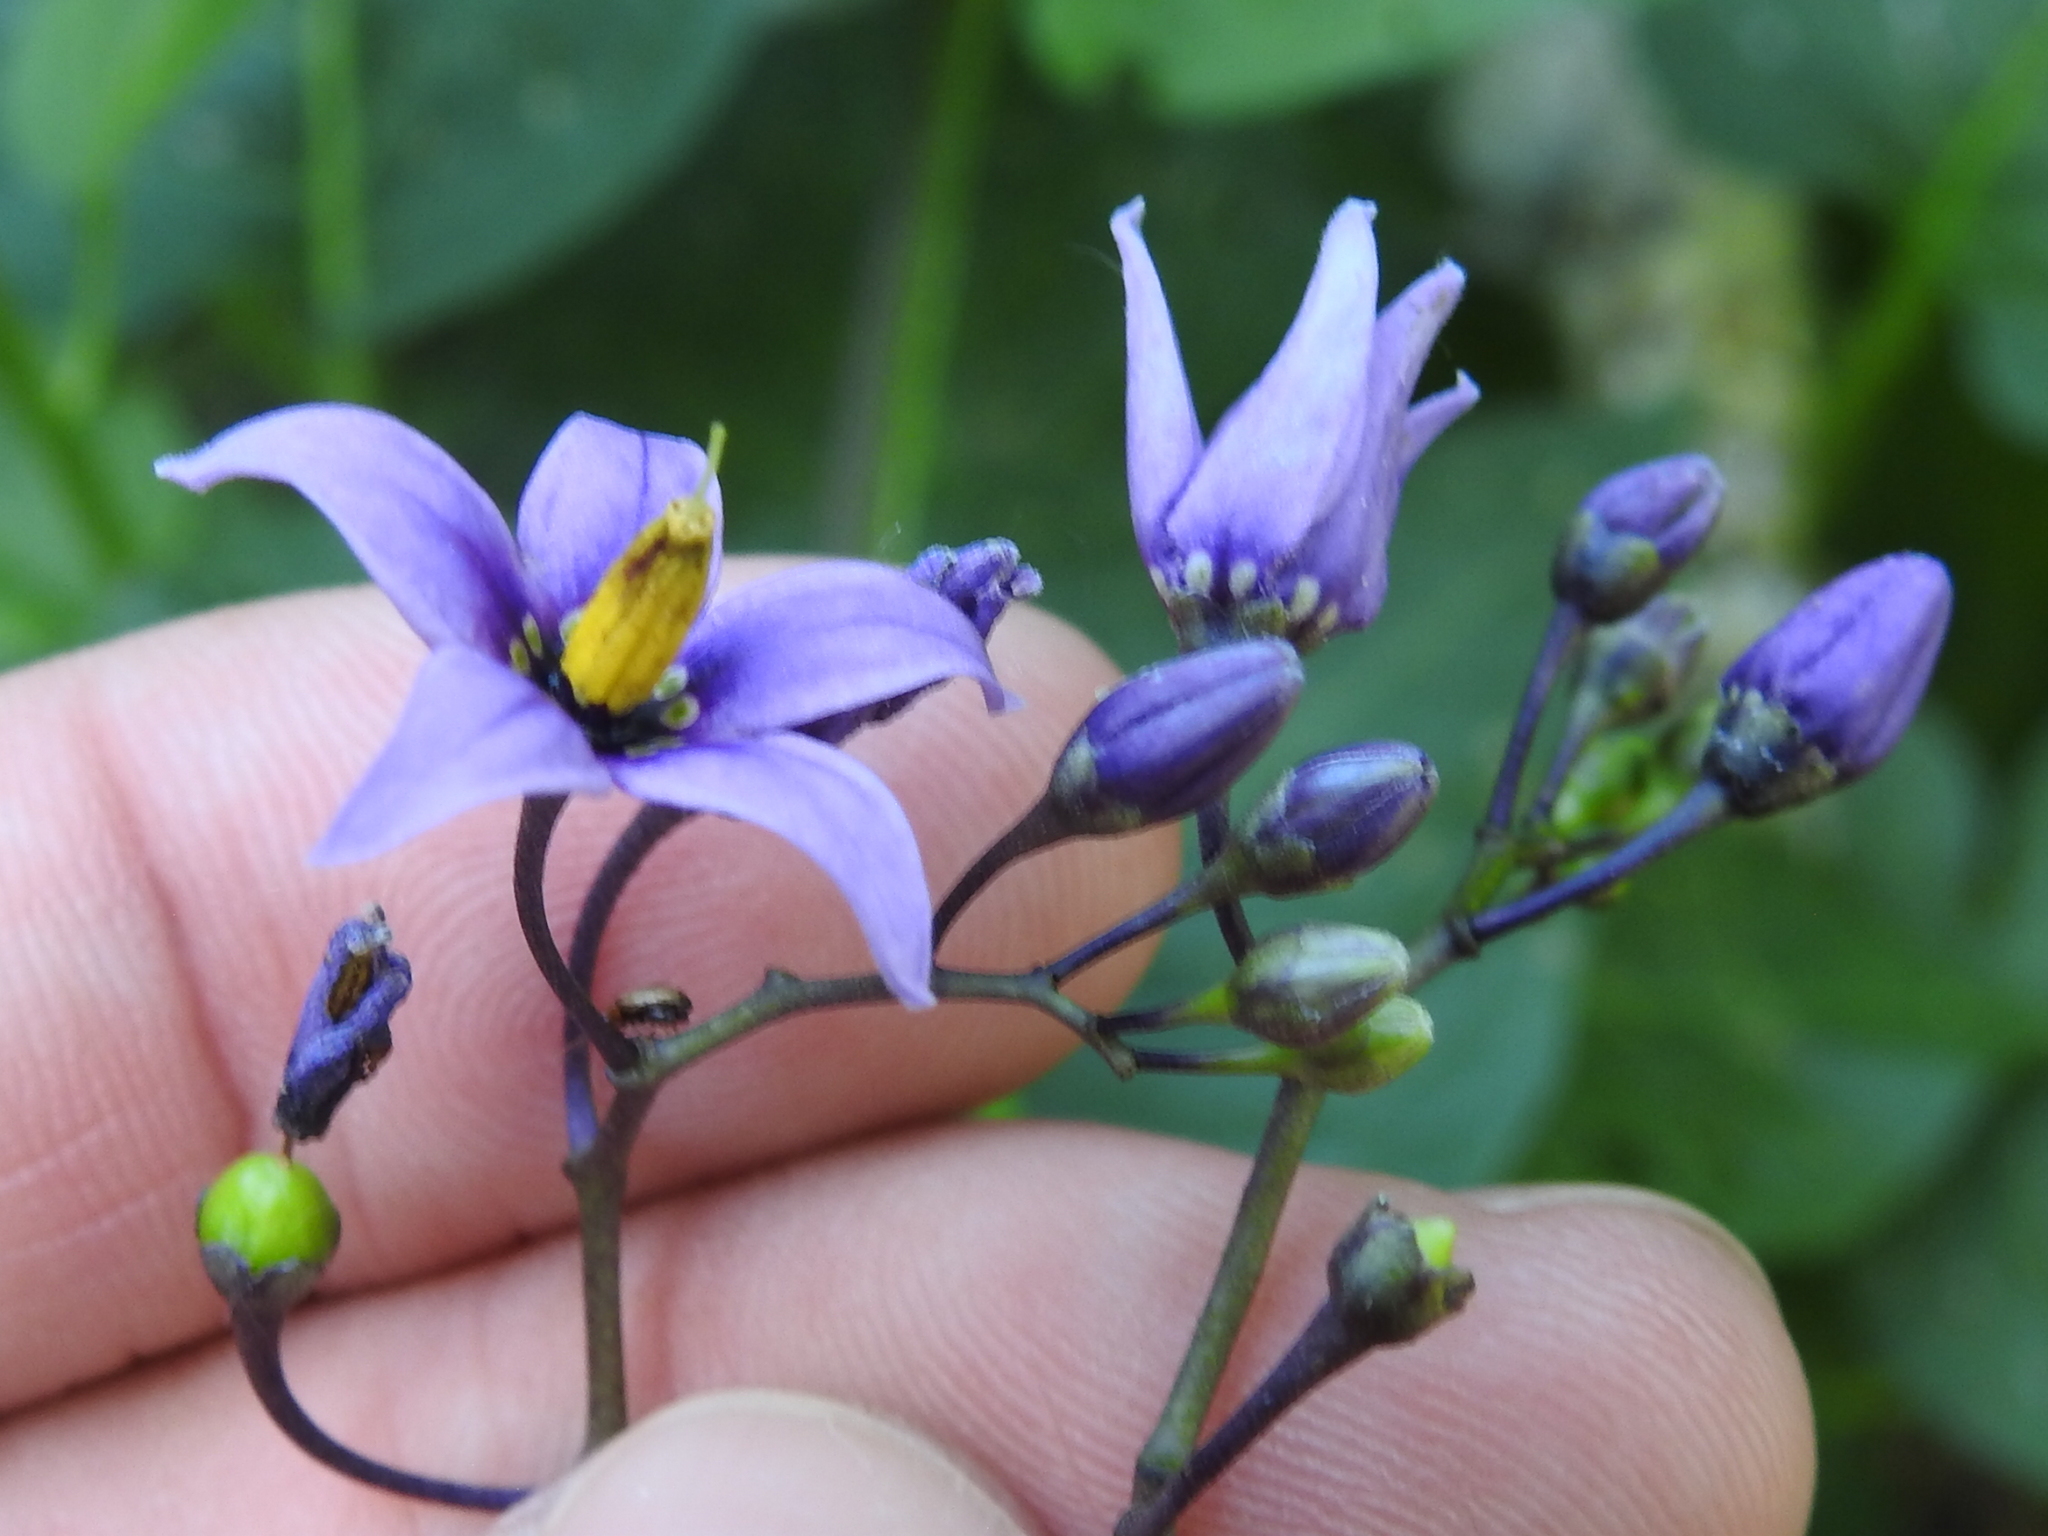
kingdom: Plantae
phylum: Tracheophyta
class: Magnoliopsida
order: Solanales
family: Solanaceae
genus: Solanum
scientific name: Solanum dulcamara
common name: Climbing nightshade
